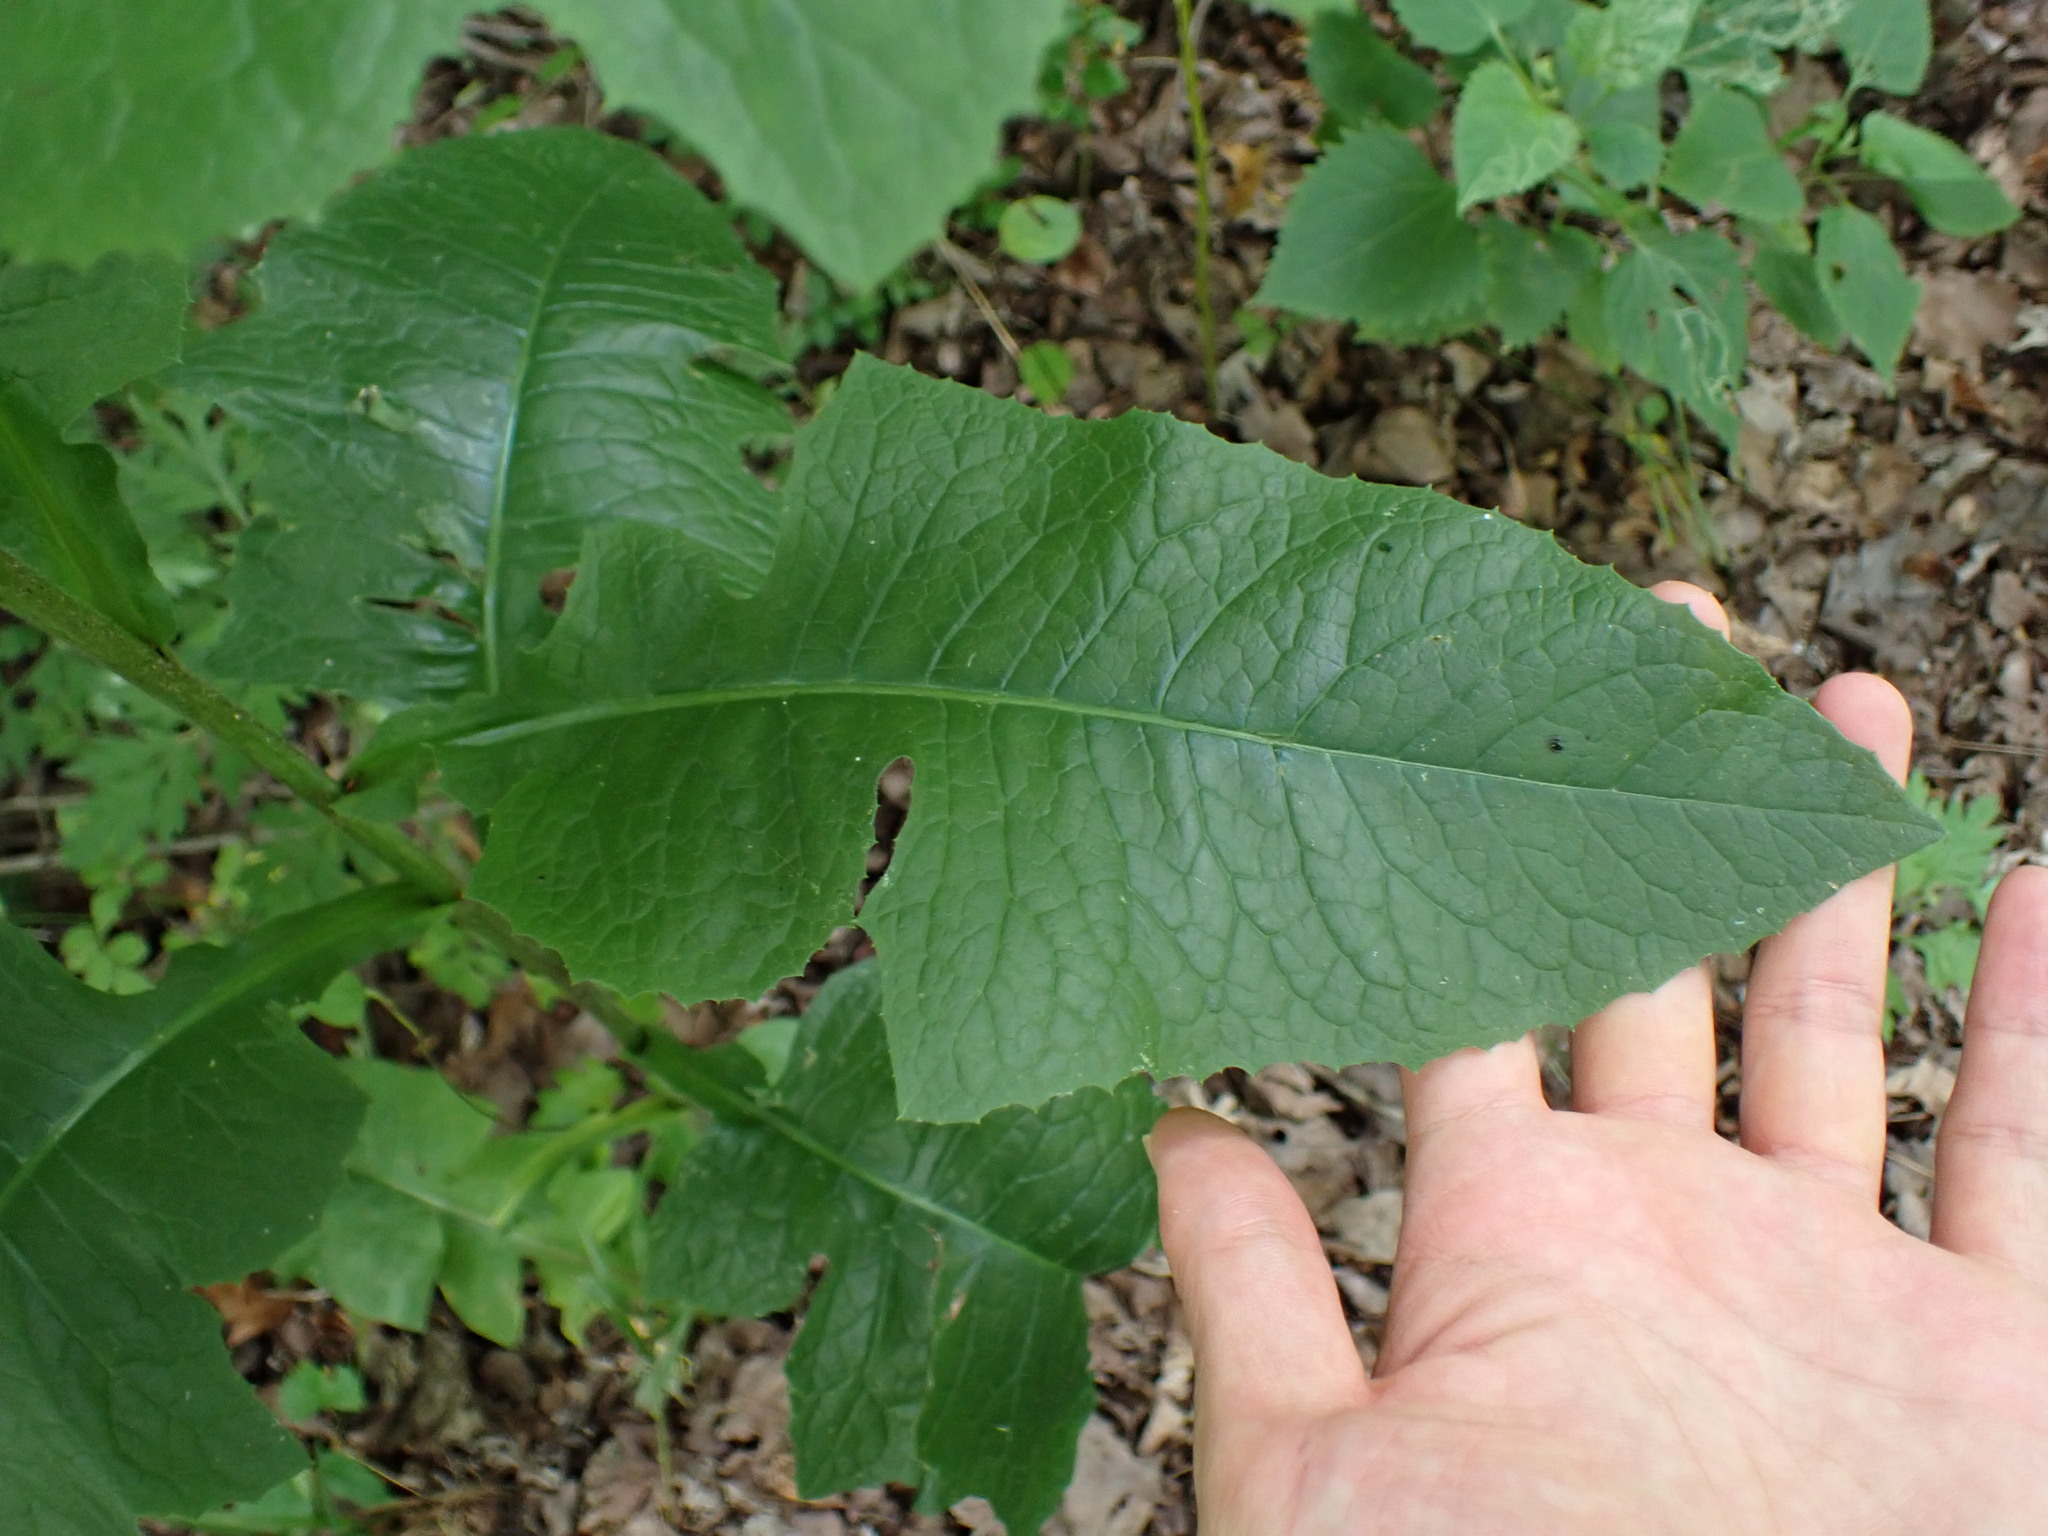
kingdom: Plantae
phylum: Tracheophyta
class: Magnoliopsida
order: Asterales
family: Asteraceae
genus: Lactuca
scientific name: Lactuca biennis
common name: Blue wood lettuce
